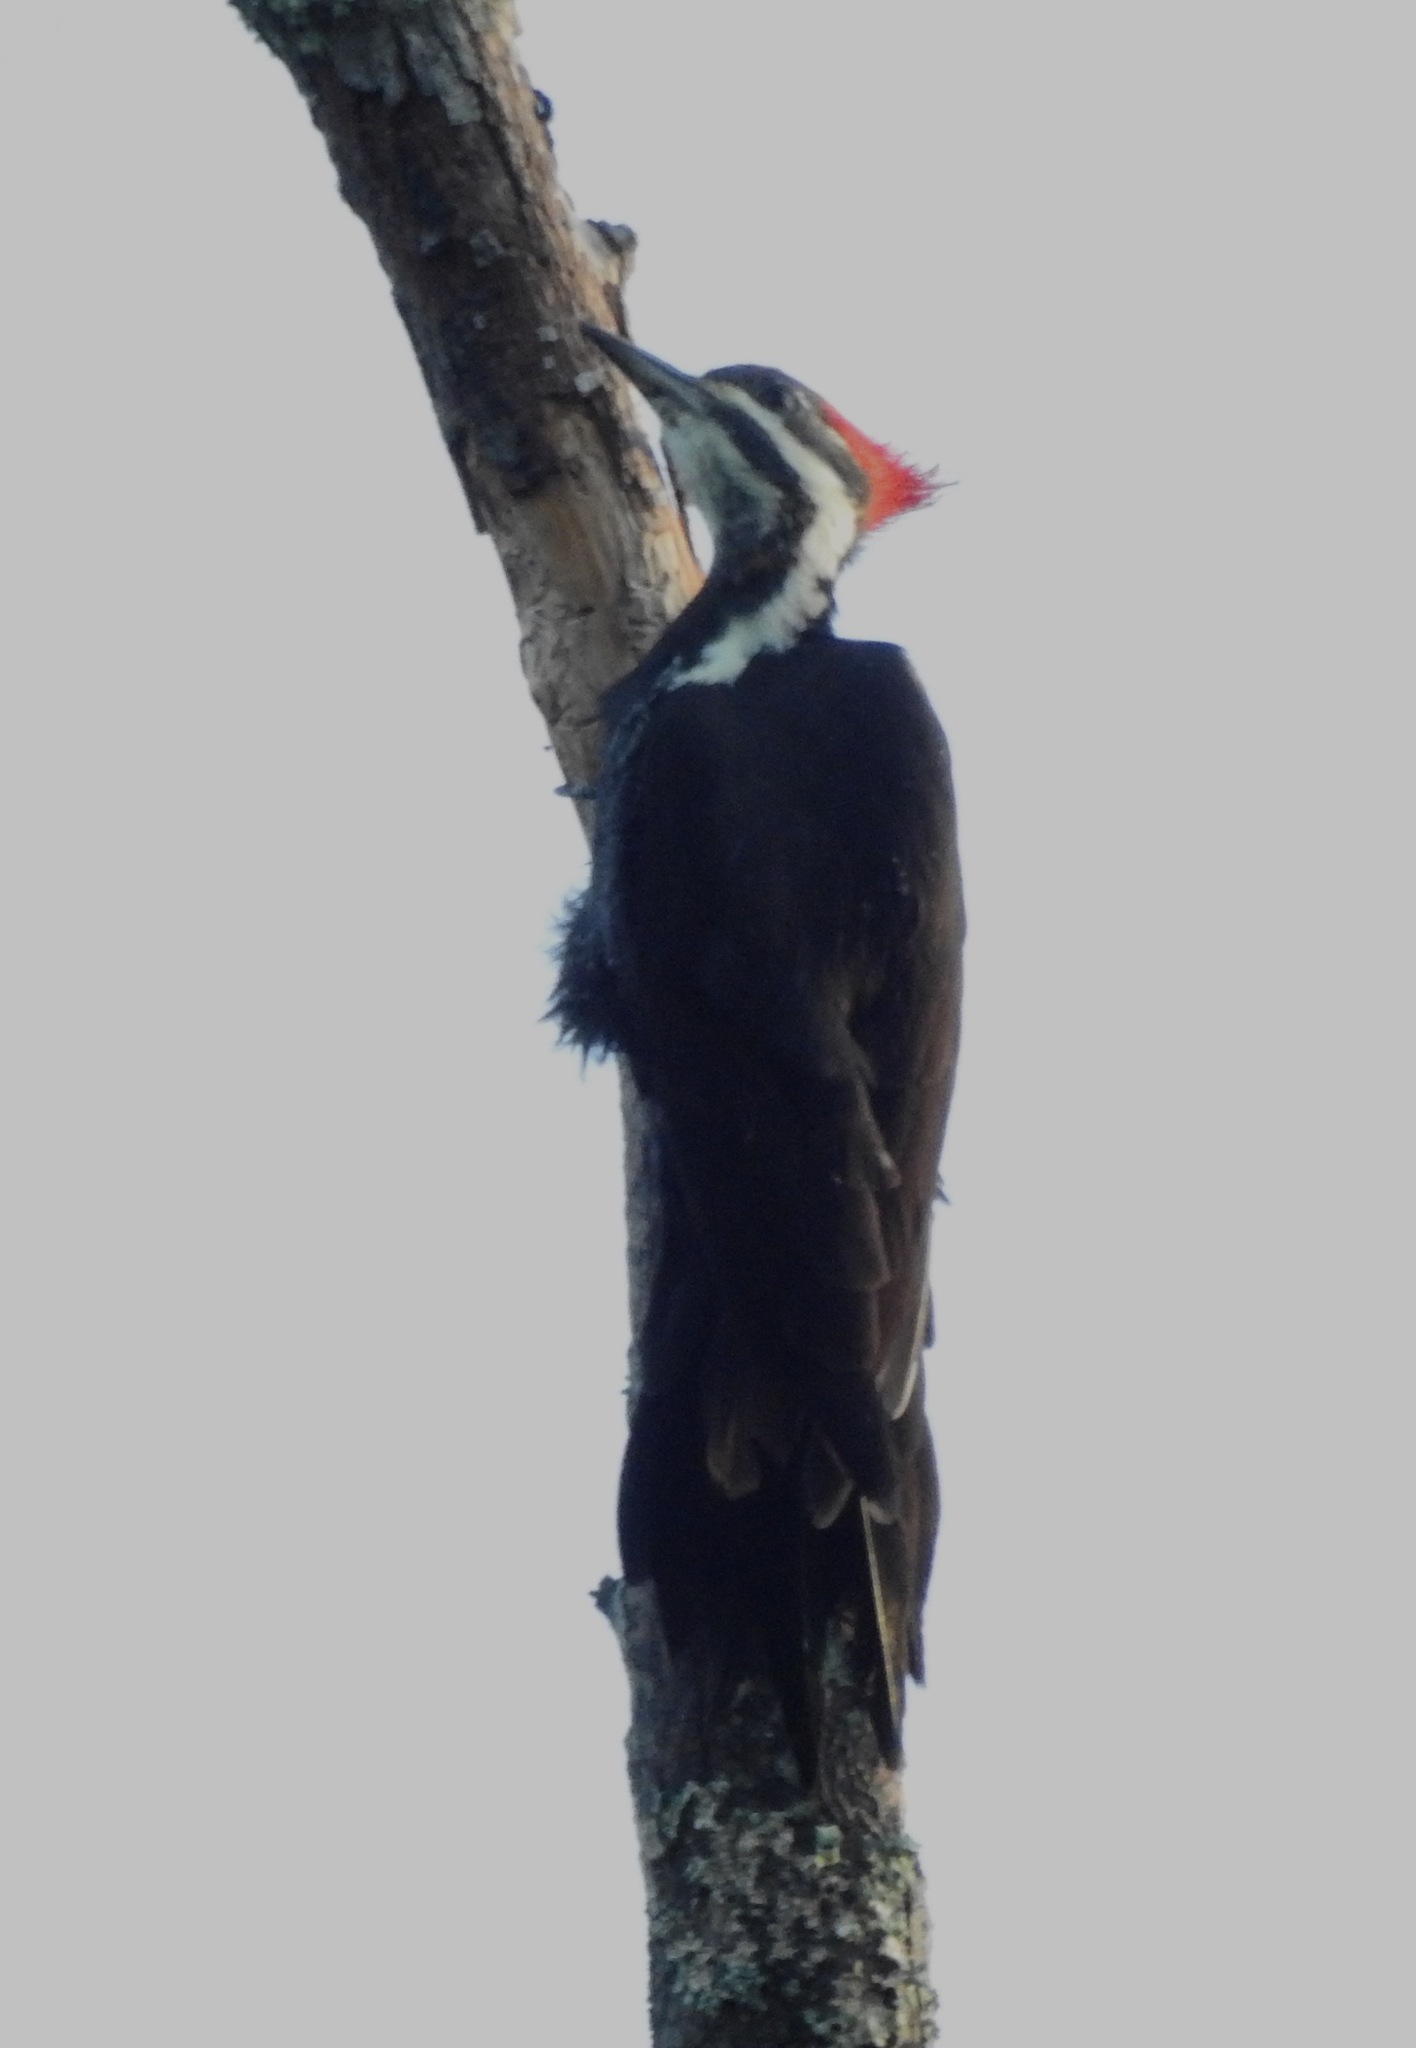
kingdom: Animalia
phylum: Chordata
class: Aves
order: Piciformes
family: Picidae
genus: Dryocopus
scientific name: Dryocopus pileatus
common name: Pileated woodpecker
